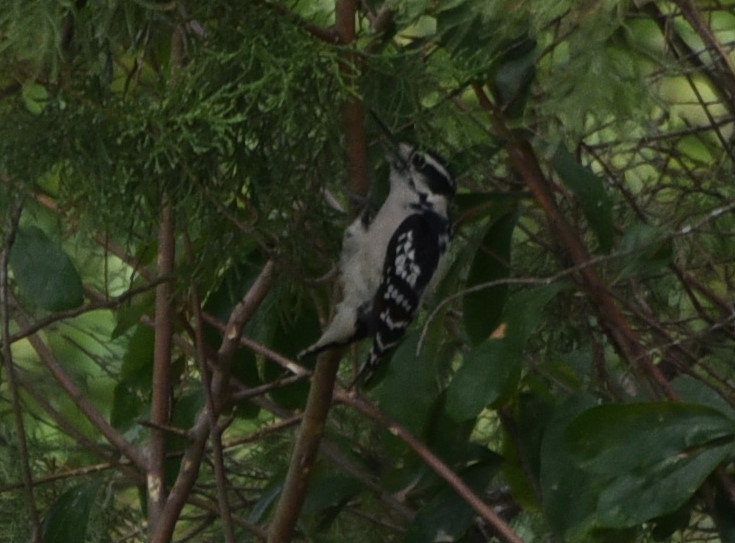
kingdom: Animalia
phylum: Chordata
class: Aves
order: Piciformes
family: Picidae
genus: Dryobates
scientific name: Dryobates pubescens
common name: Downy woodpecker
